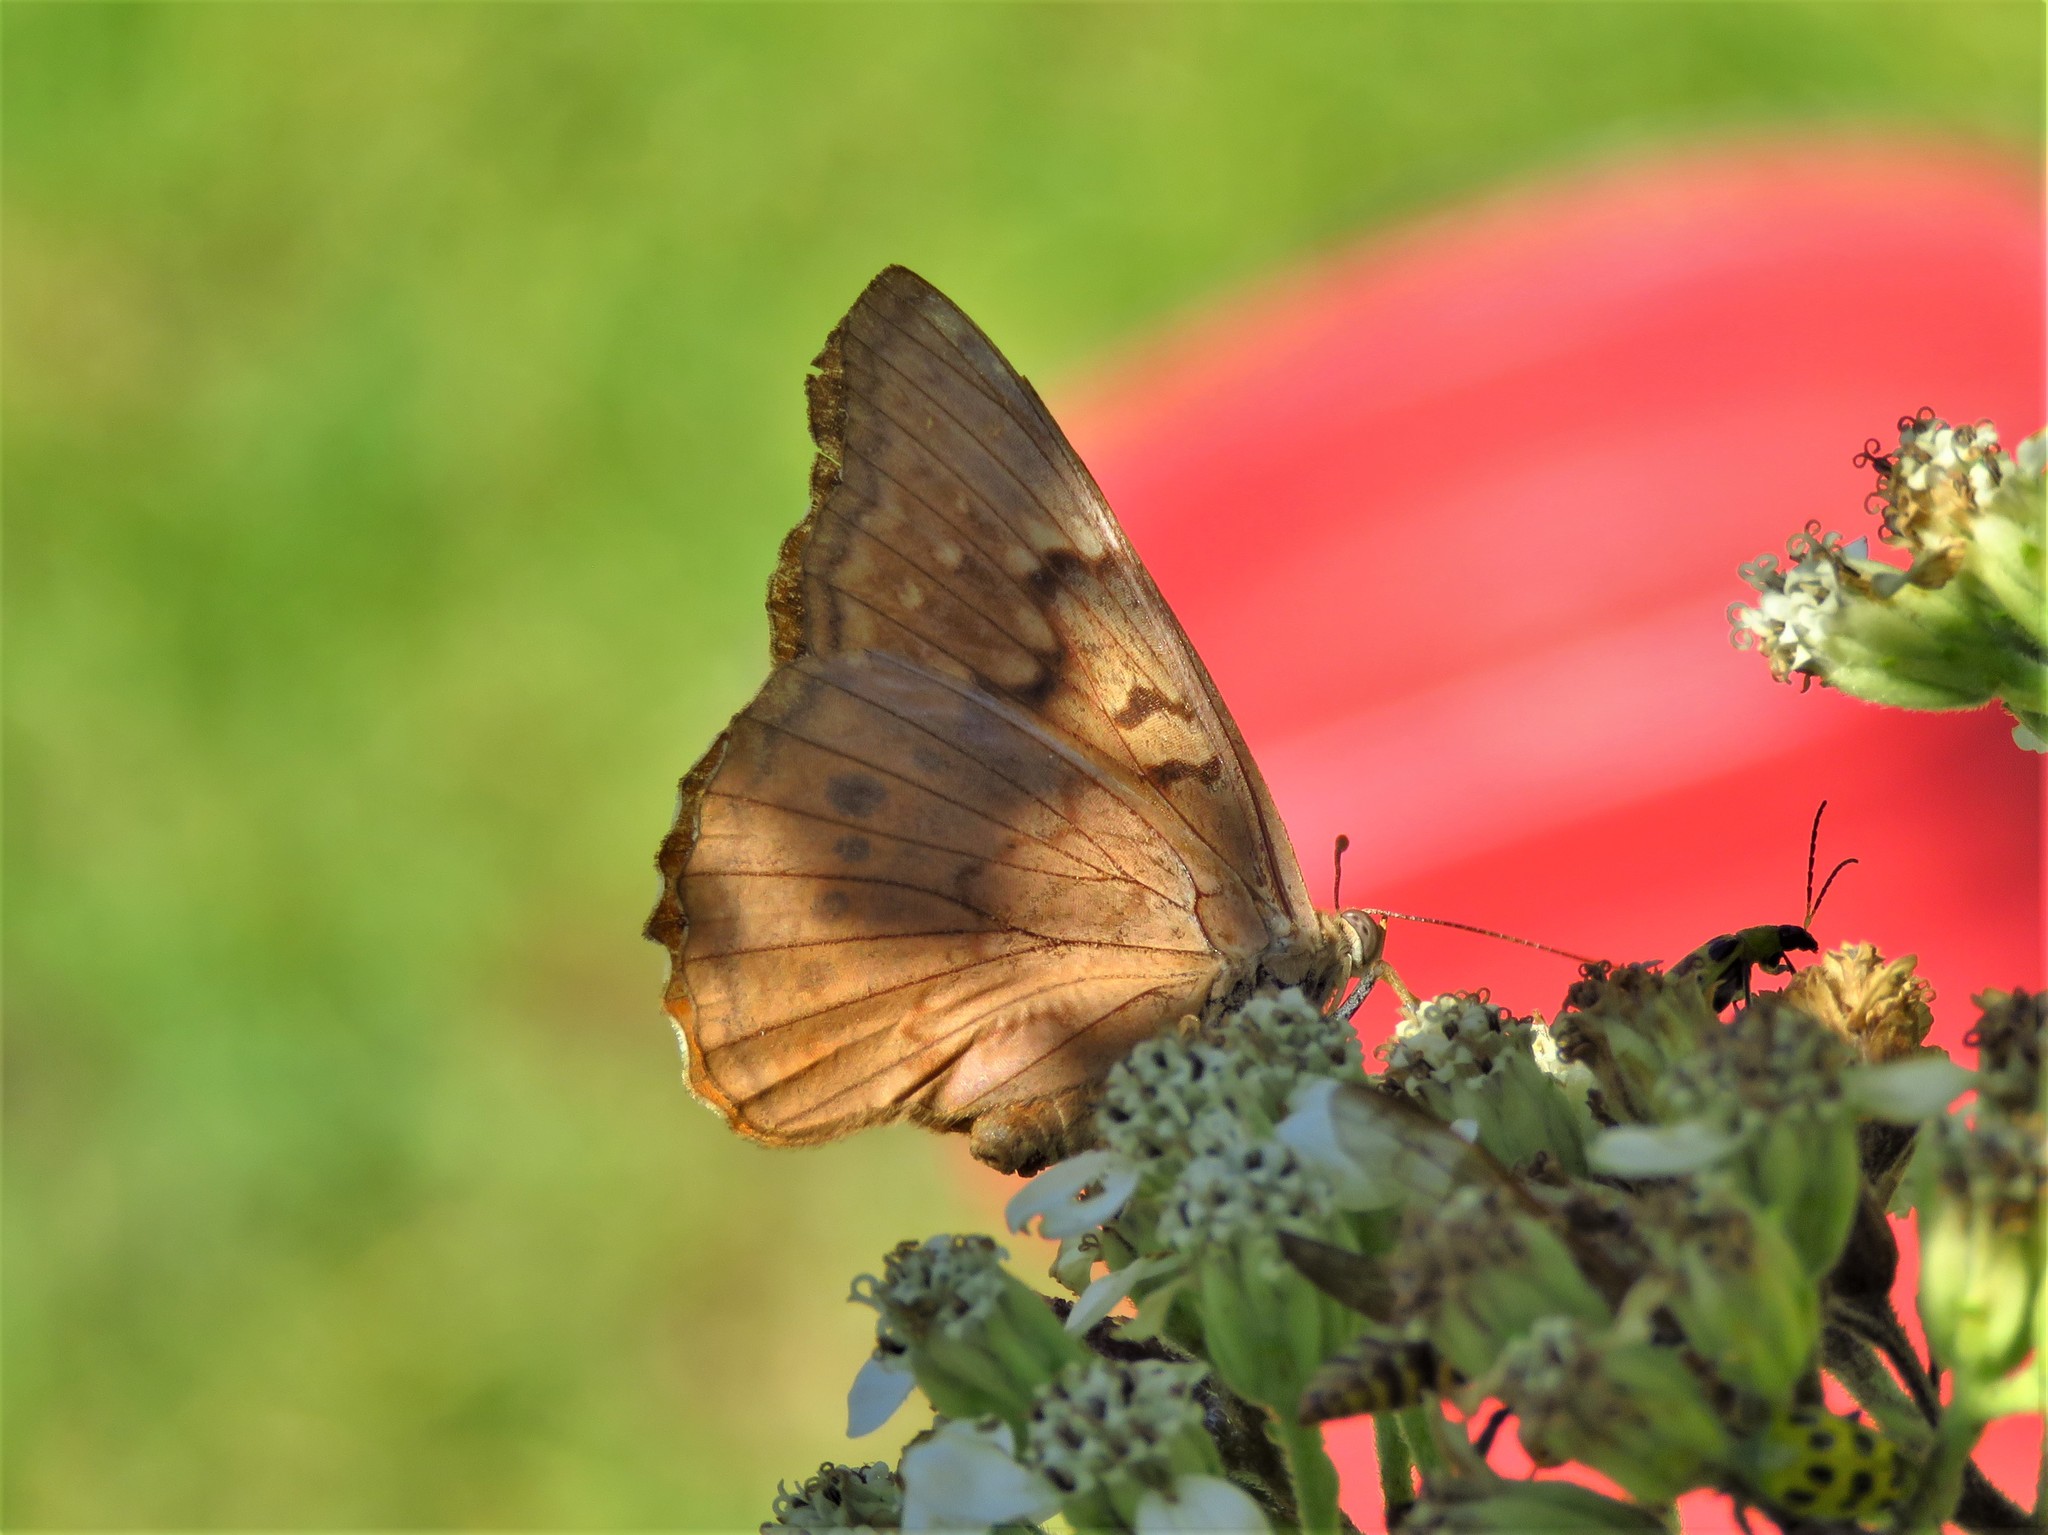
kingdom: Animalia
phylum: Arthropoda
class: Insecta
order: Lepidoptera
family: Nymphalidae
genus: Asterocampa
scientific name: Asterocampa clyton
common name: Tawny emperor
